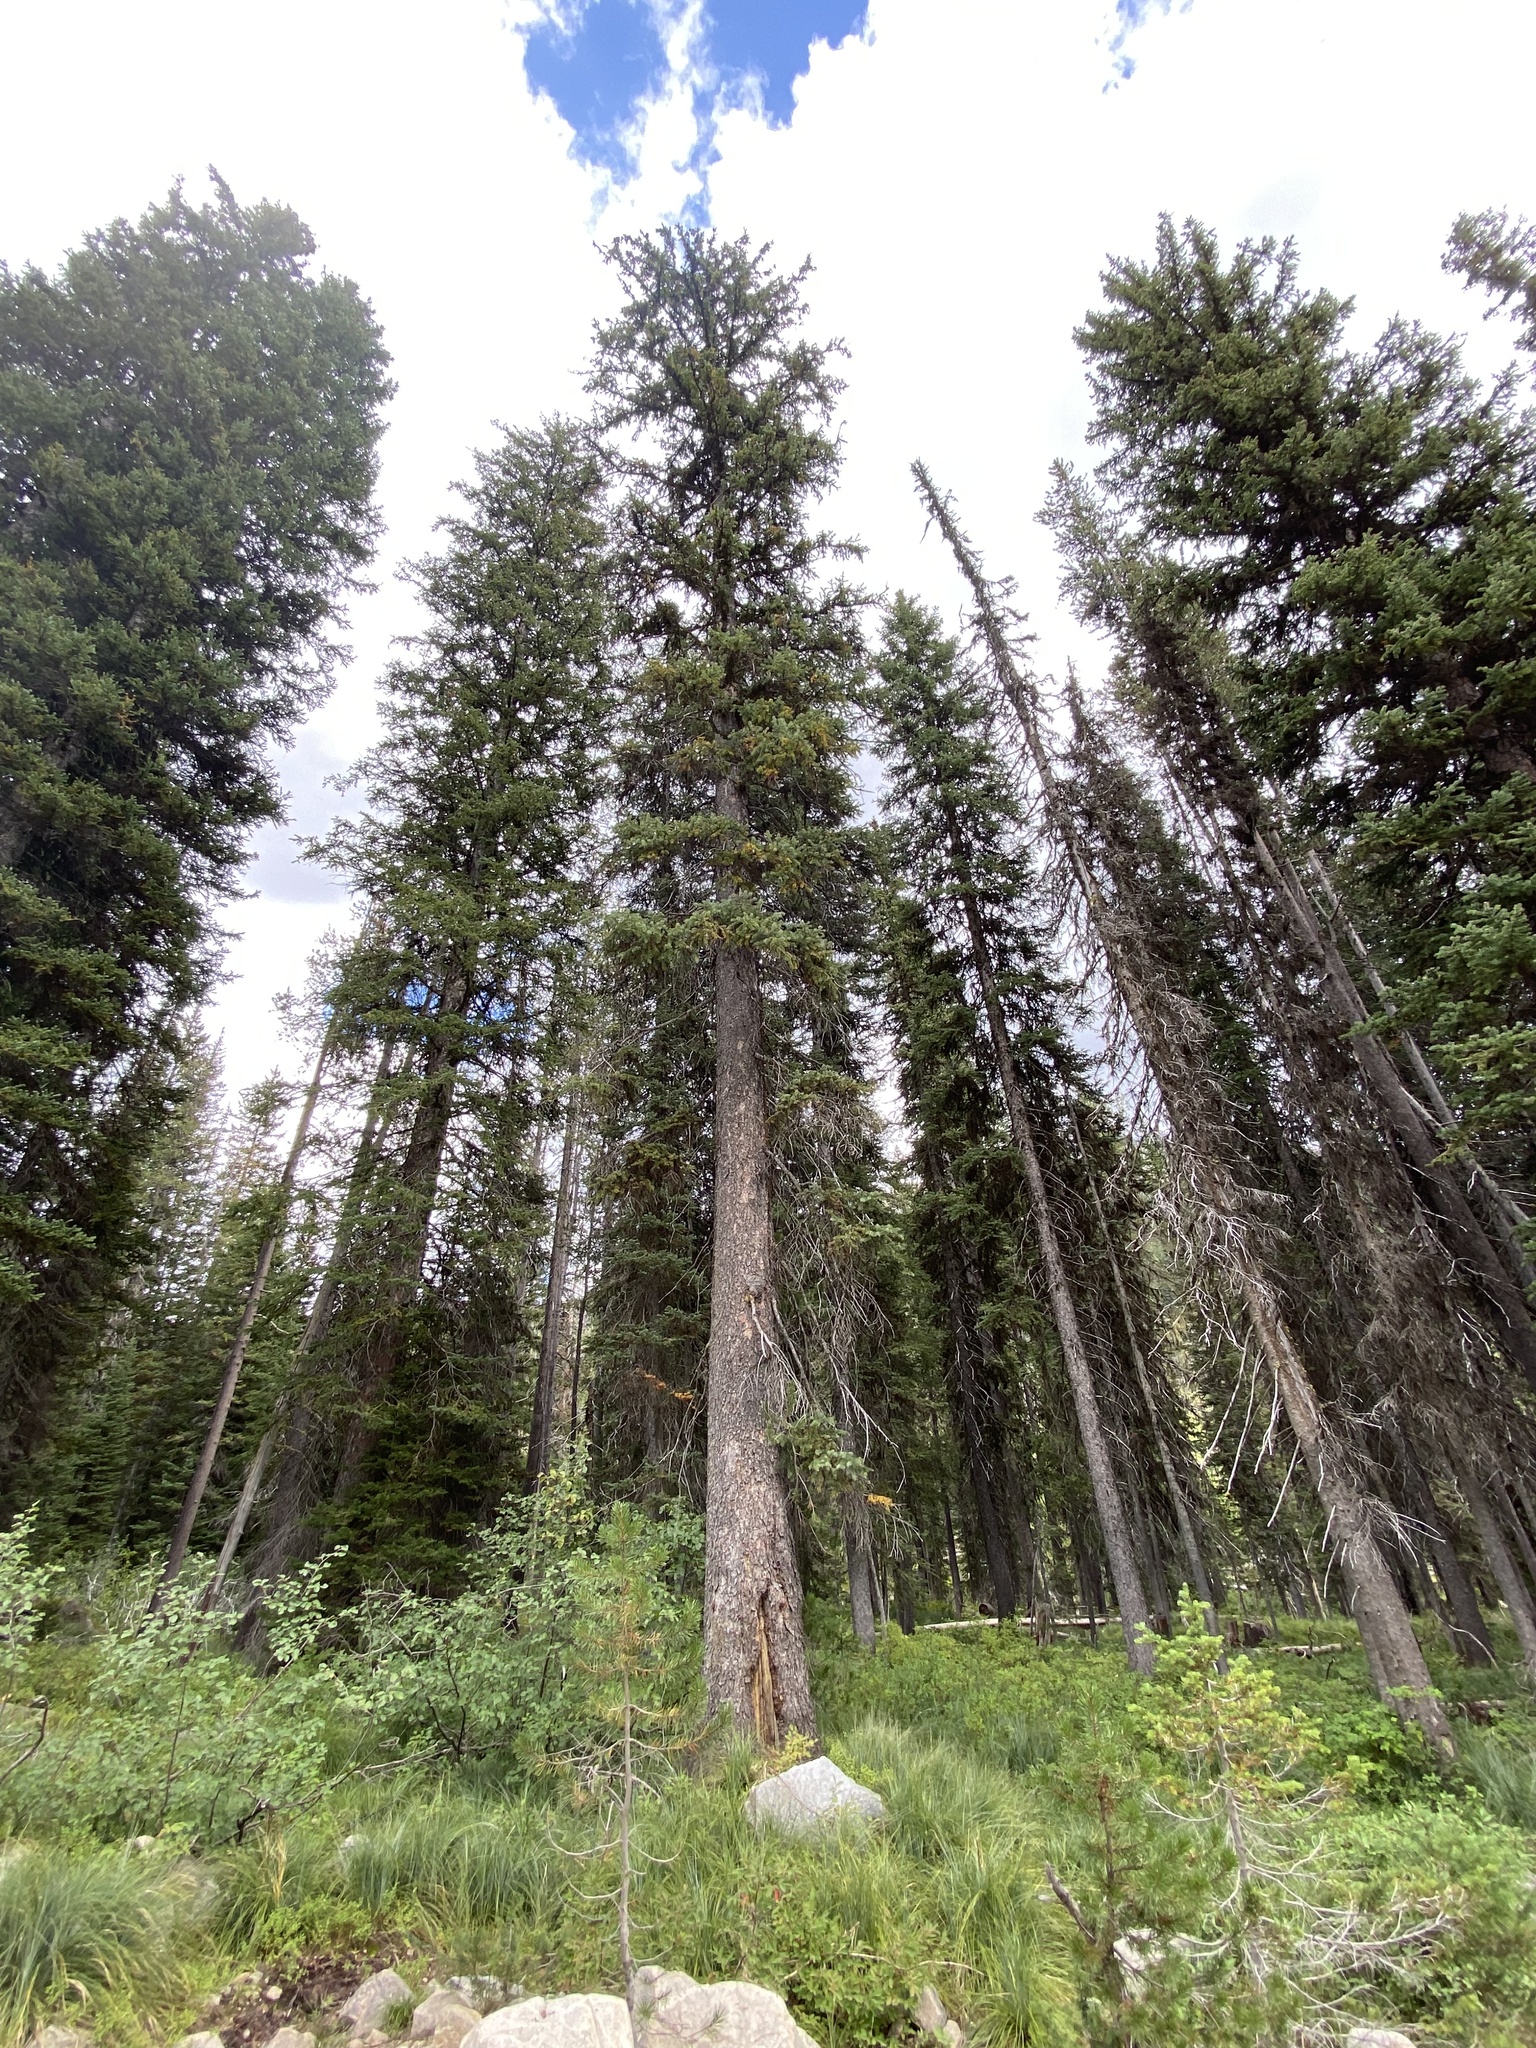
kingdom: Plantae
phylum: Tracheophyta
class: Pinopsida
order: Pinales
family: Pinaceae
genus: Pinus
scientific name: Pinus contorta
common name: Lodgepole pine
